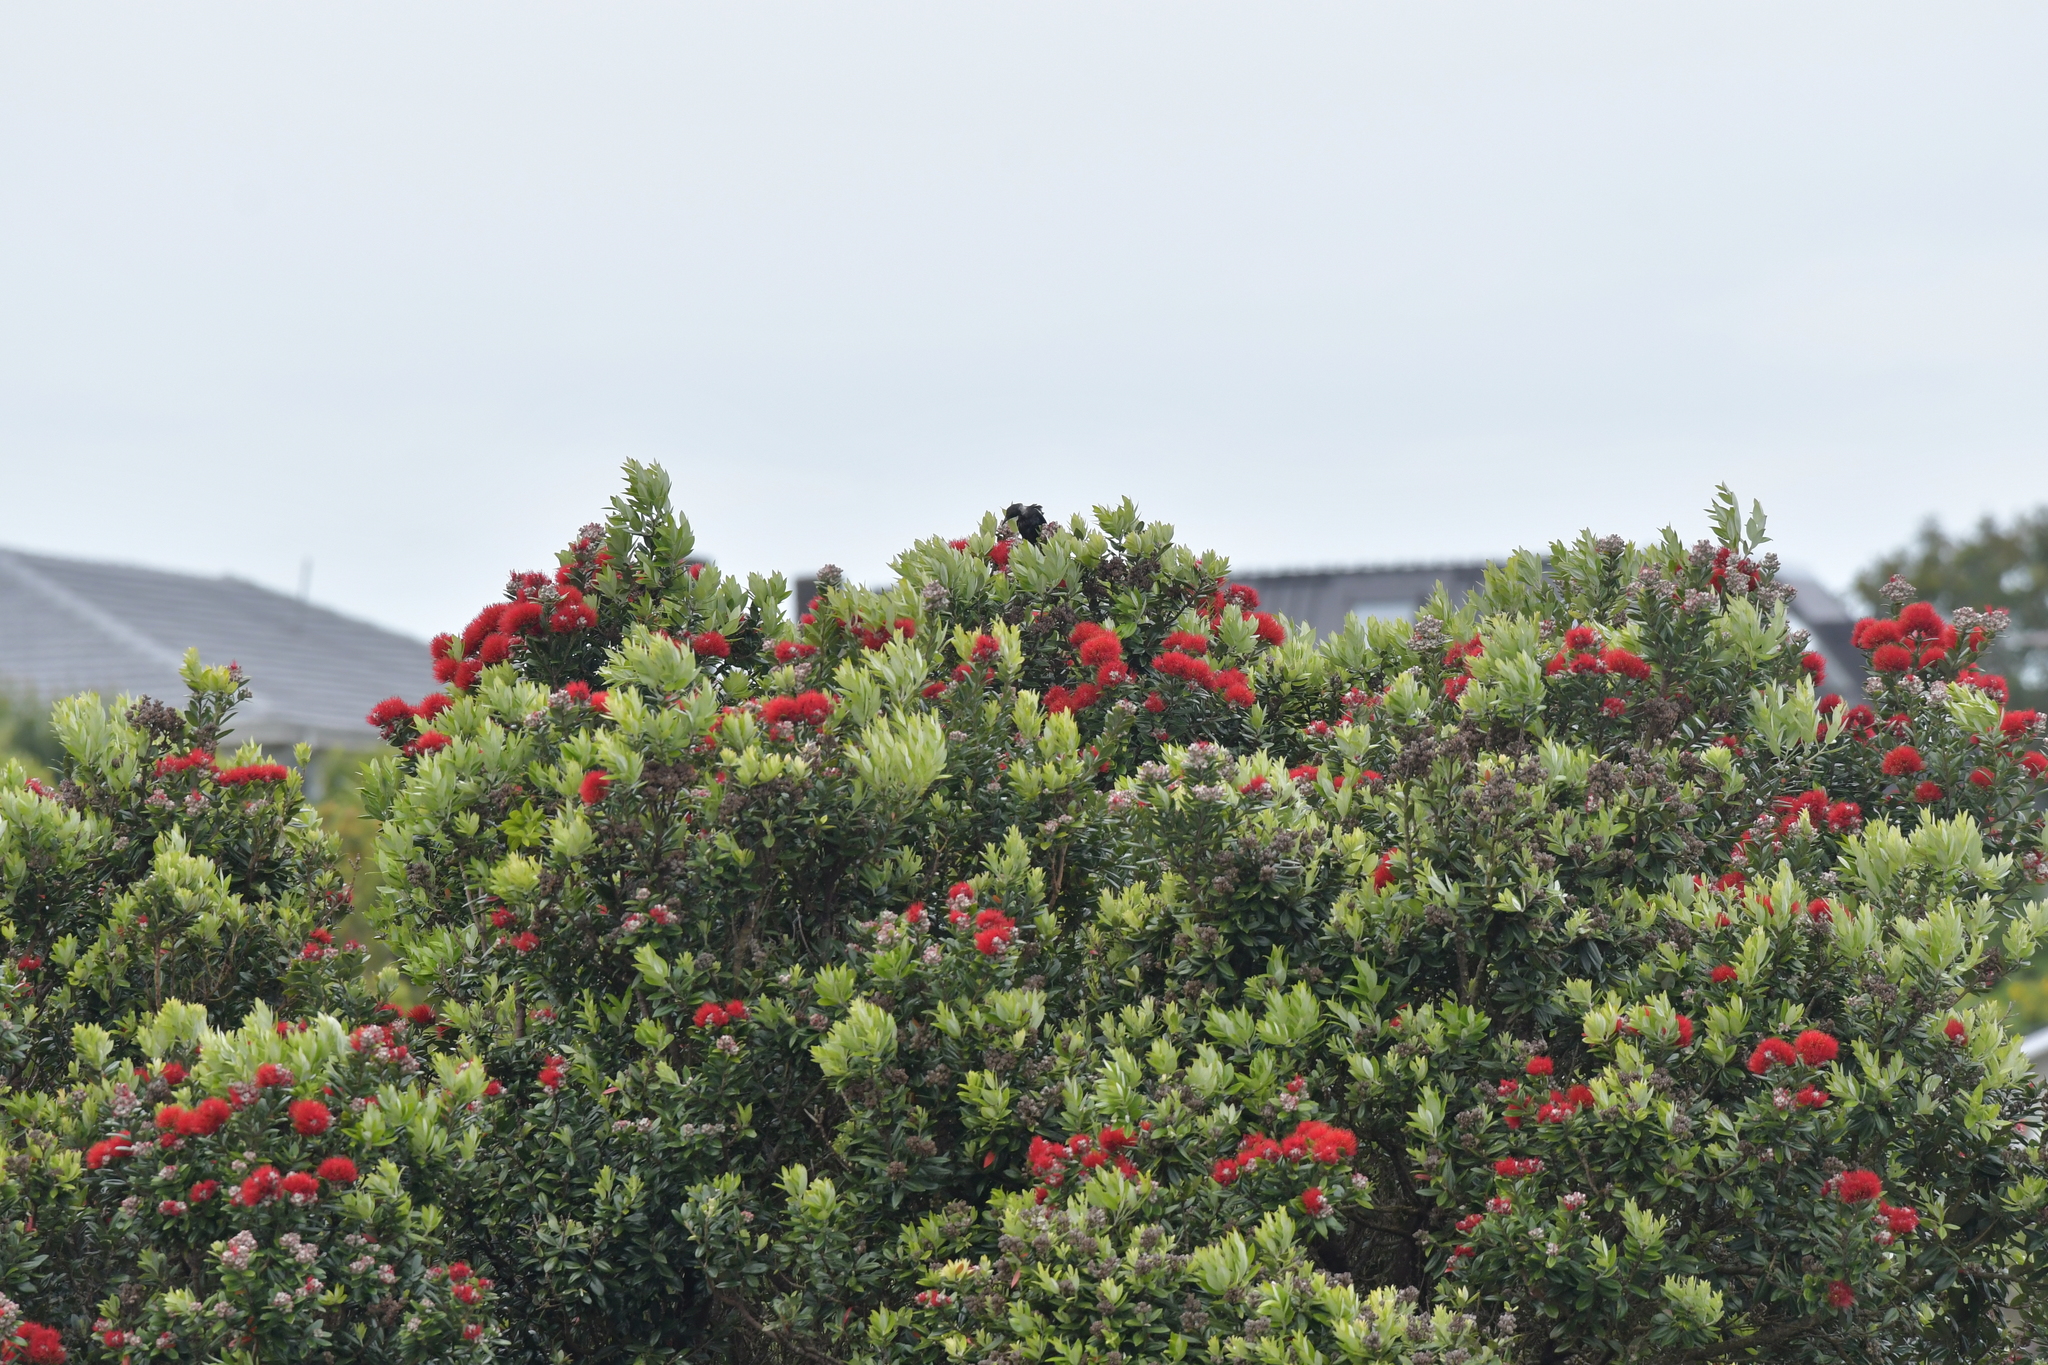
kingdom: Animalia
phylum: Chordata
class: Aves
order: Passeriformes
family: Meliphagidae
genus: Prosthemadera
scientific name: Prosthemadera novaeseelandiae
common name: Tui
